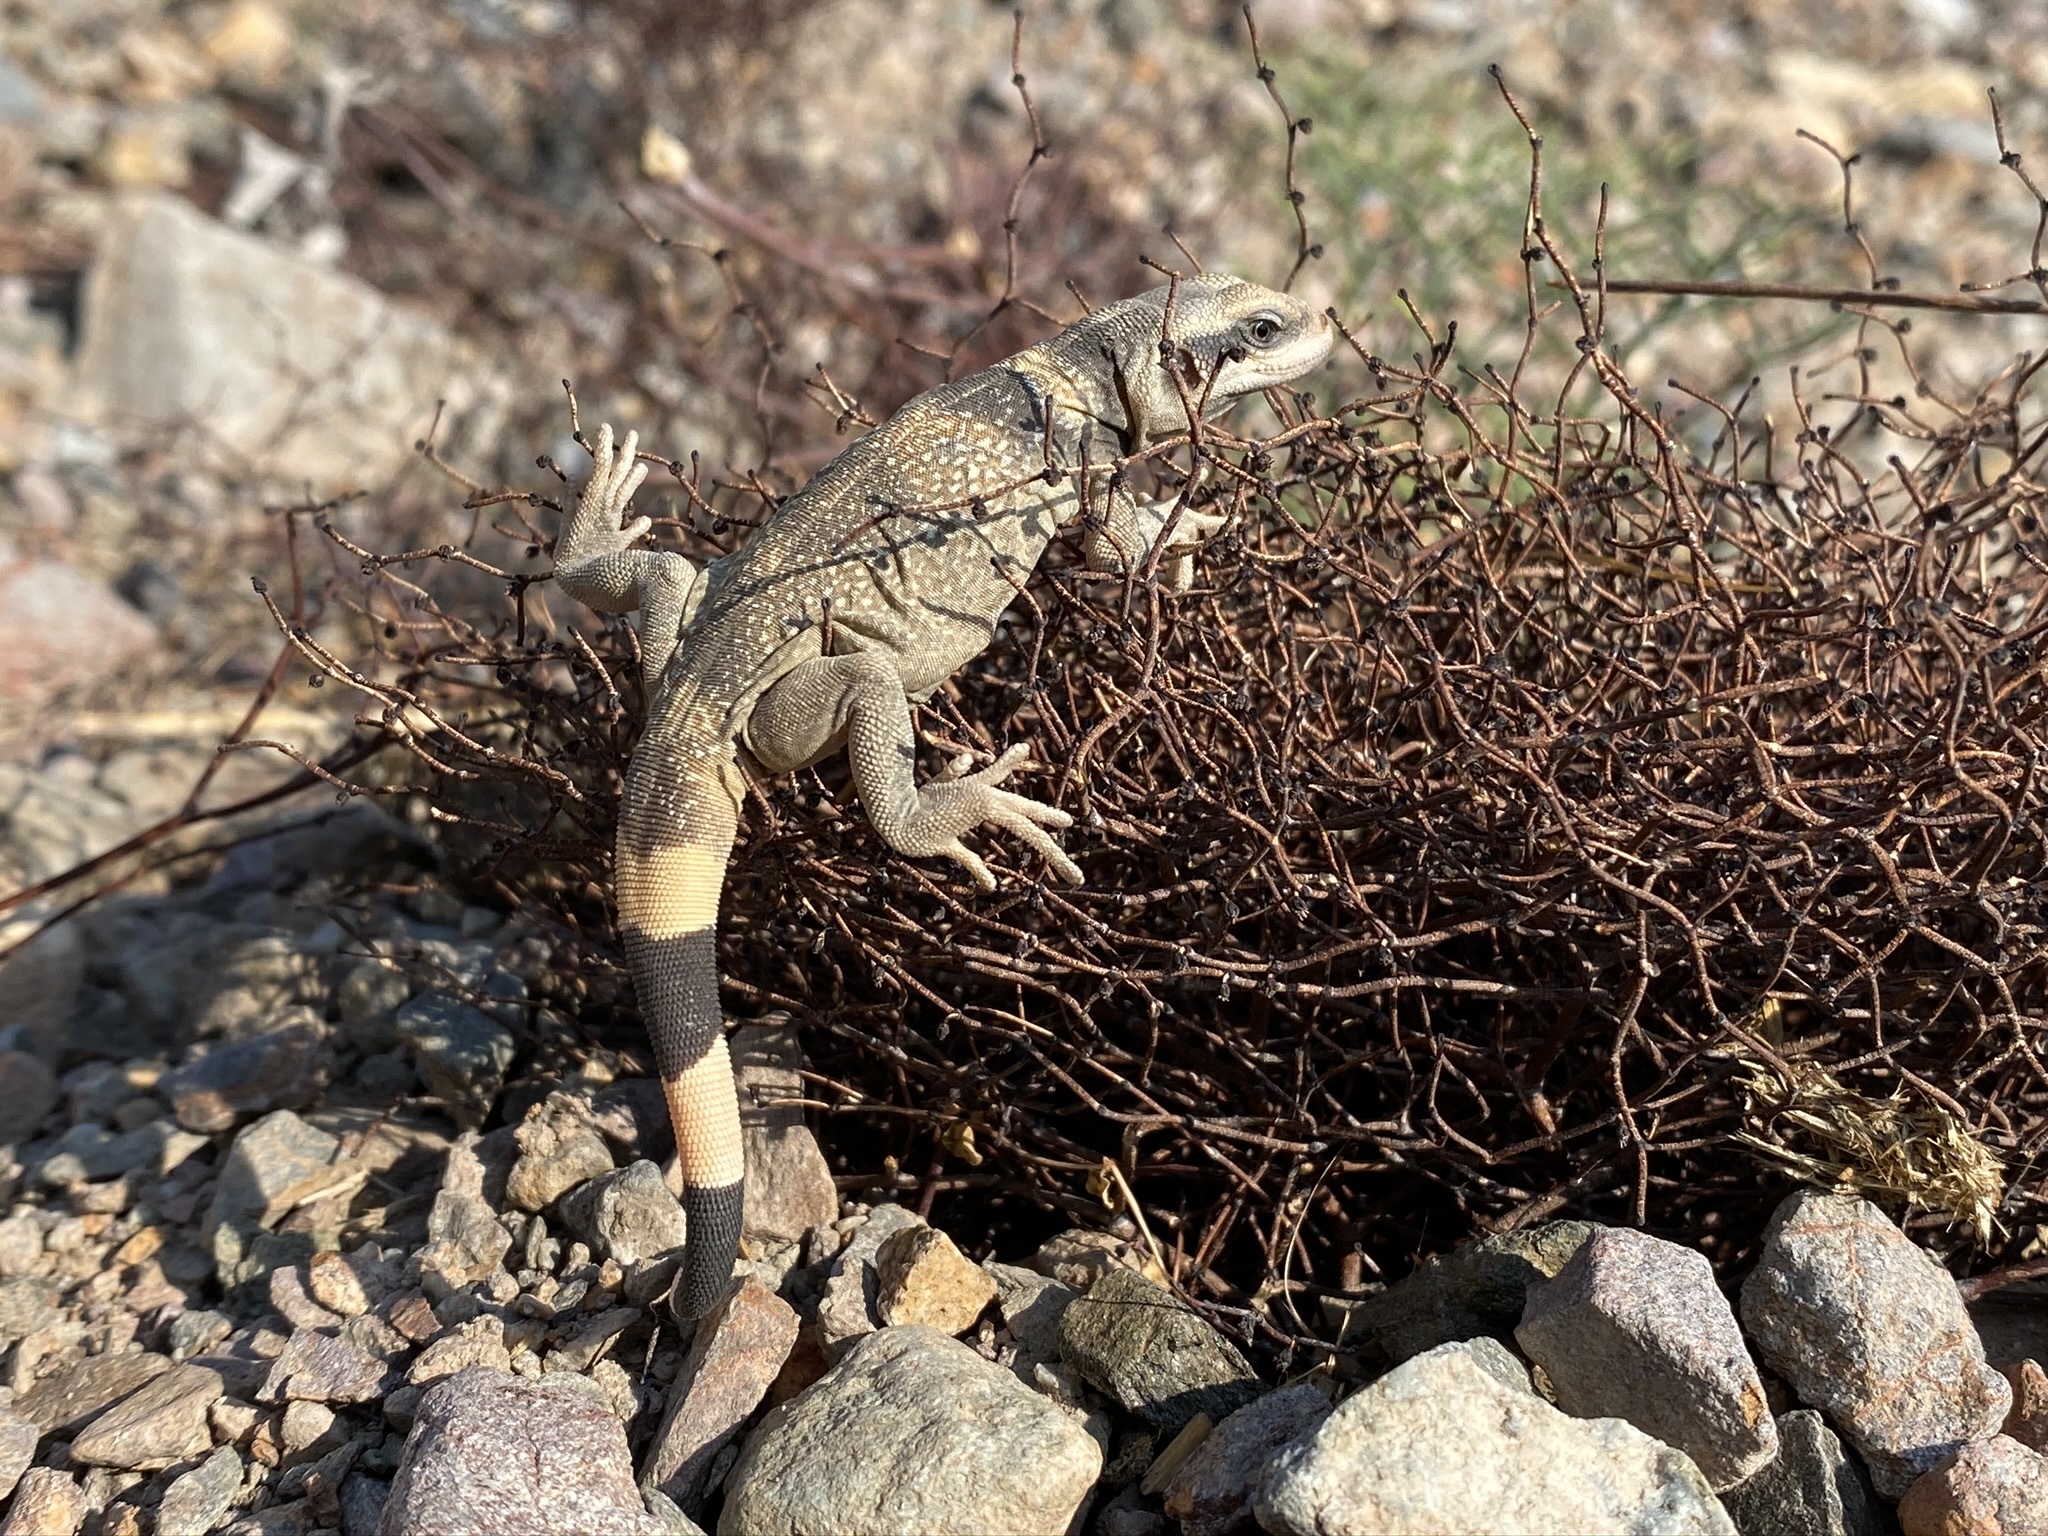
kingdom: Animalia
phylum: Chordata
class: Squamata
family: Iguanidae
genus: Sauromalus
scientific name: Sauromalus ater
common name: Northern chuckwalla
